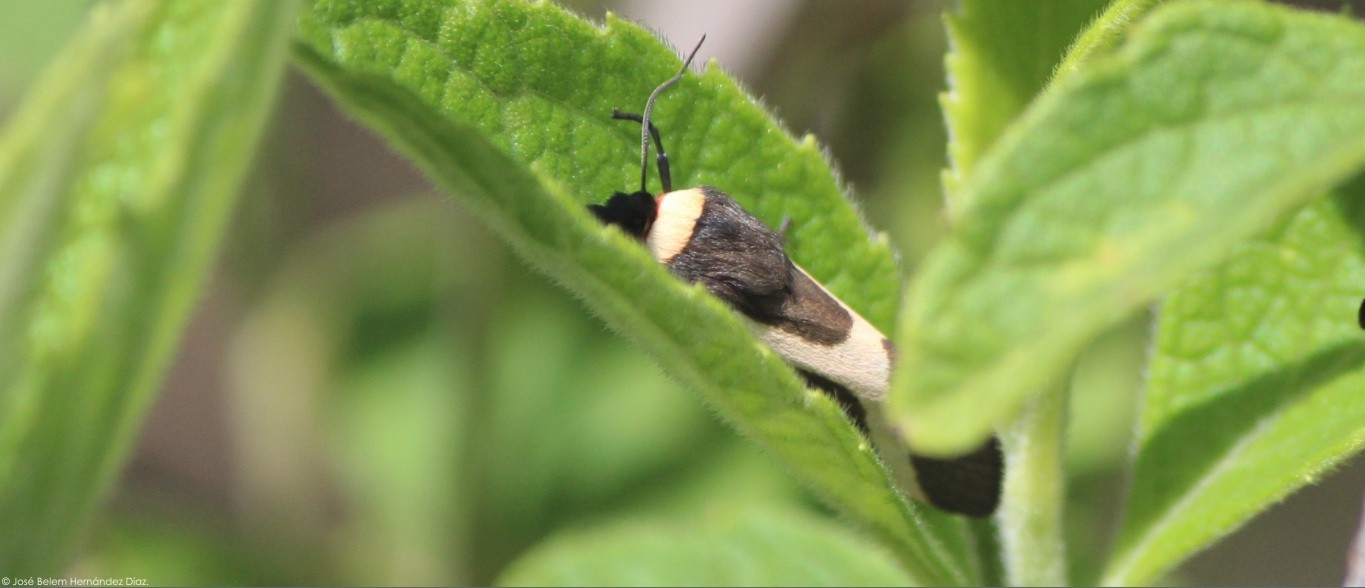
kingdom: Animalia
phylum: Arthropoda
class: Insecta
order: Lepidoptera
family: Erebidae
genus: Allanwatsonia
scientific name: Allanwatsonia hodeva
